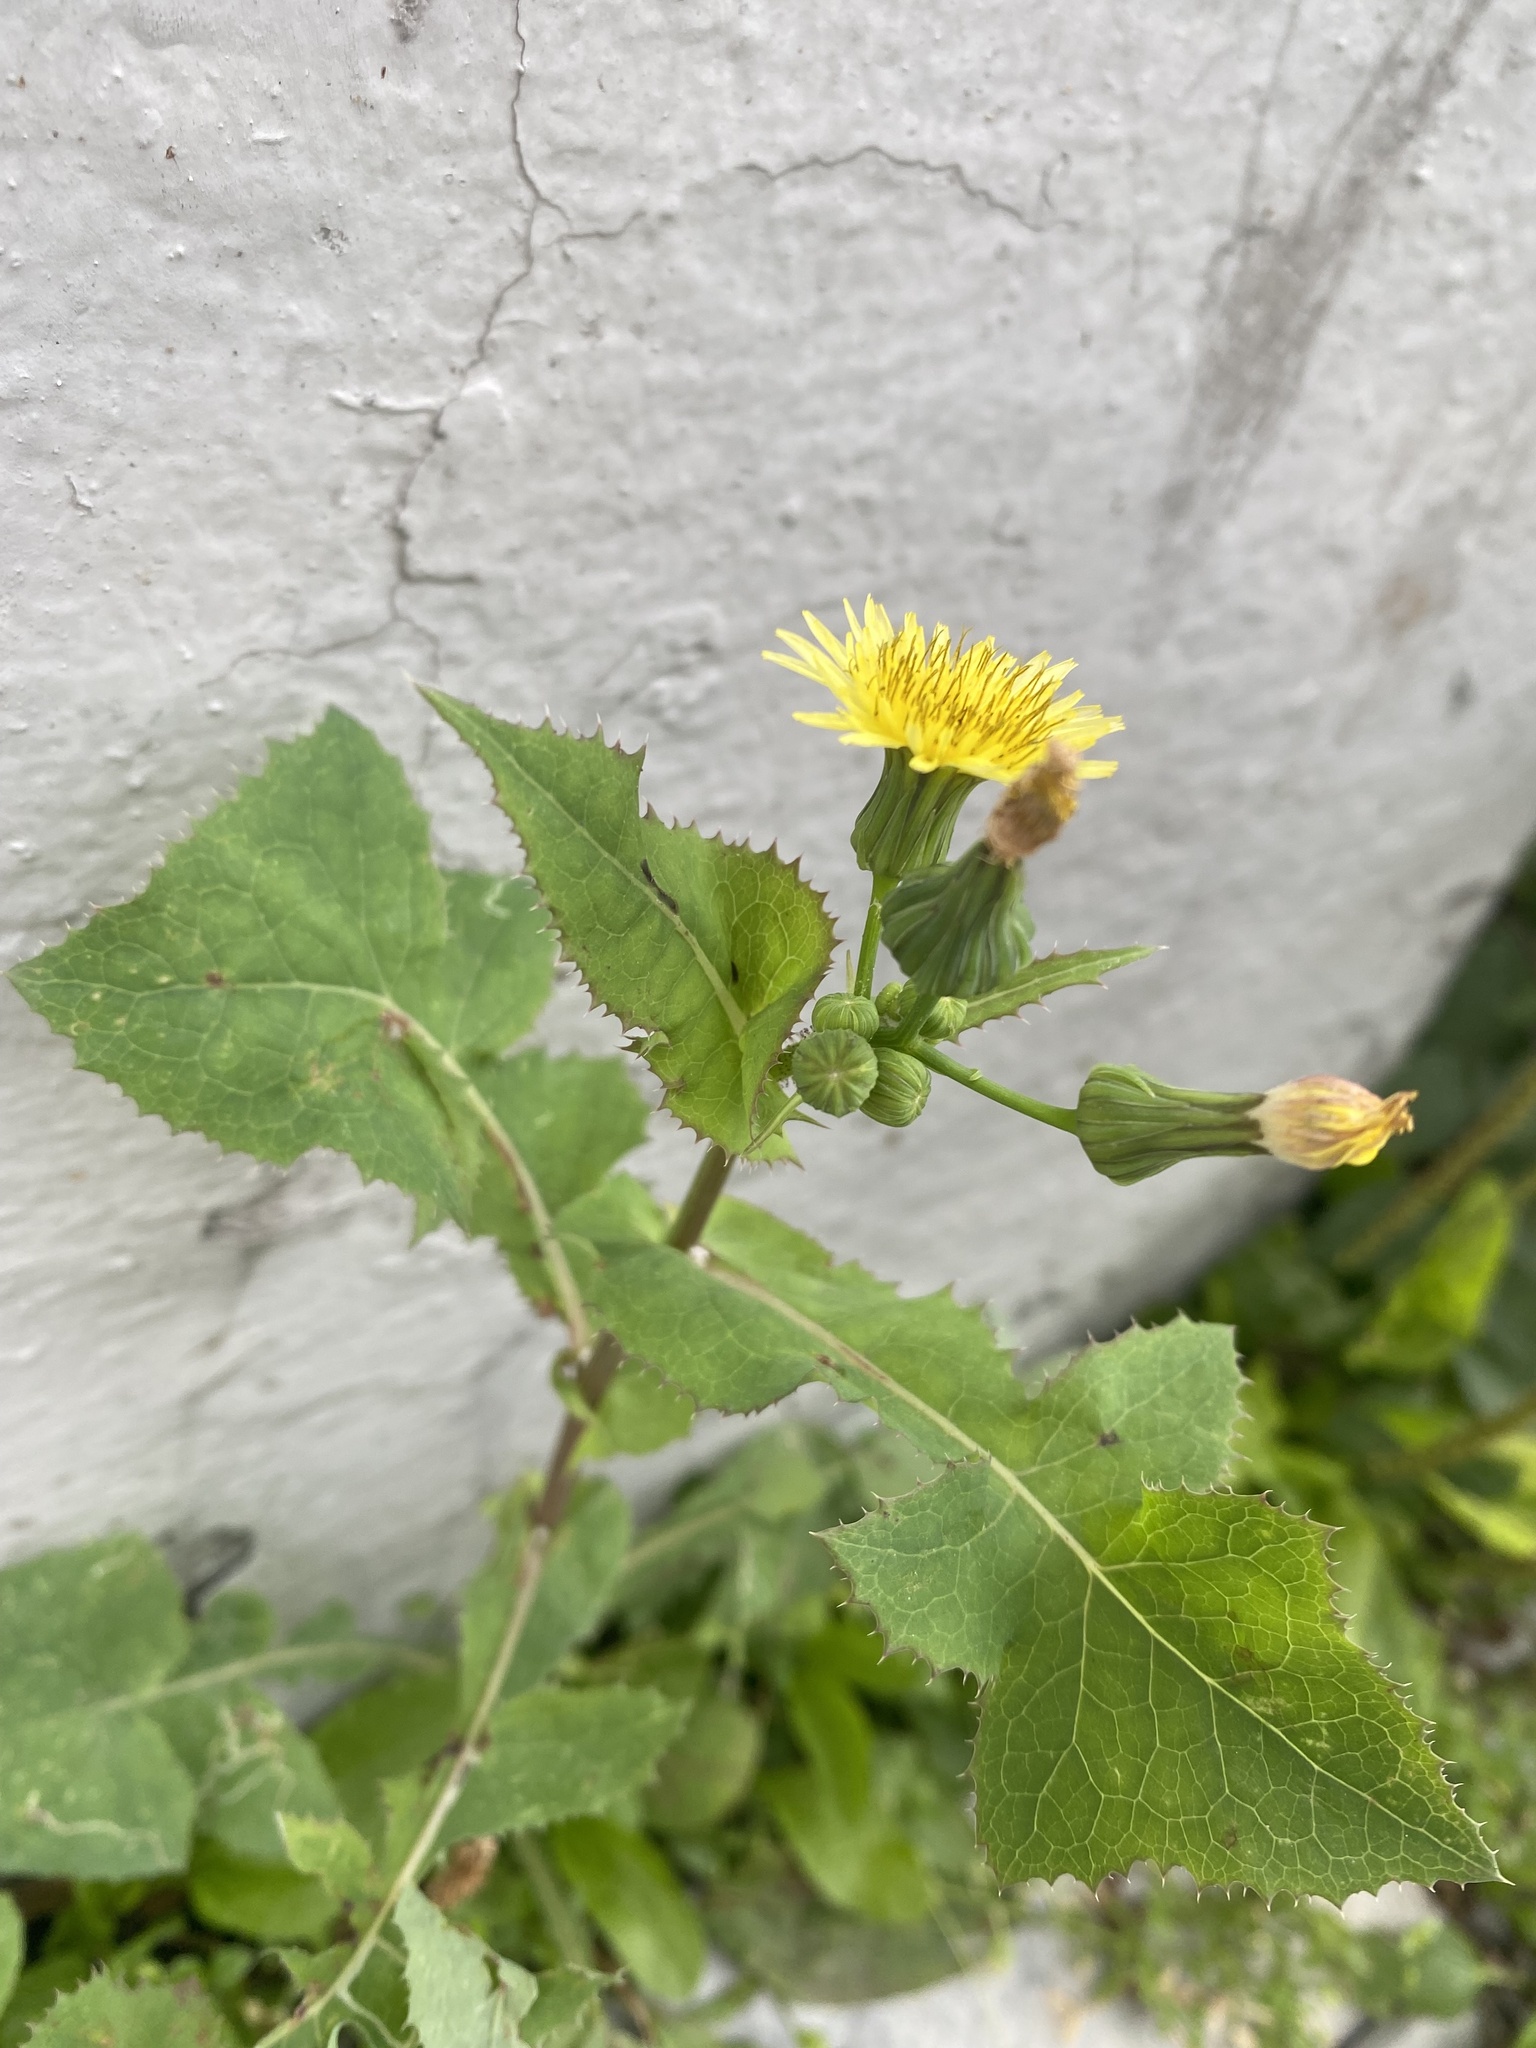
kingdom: Plantae
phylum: Tracheophyta
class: Magnoliopsida
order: Asterales
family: Asteraceae
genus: Sonchus
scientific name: Sonchus oleraceus
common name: Common sowthistle
